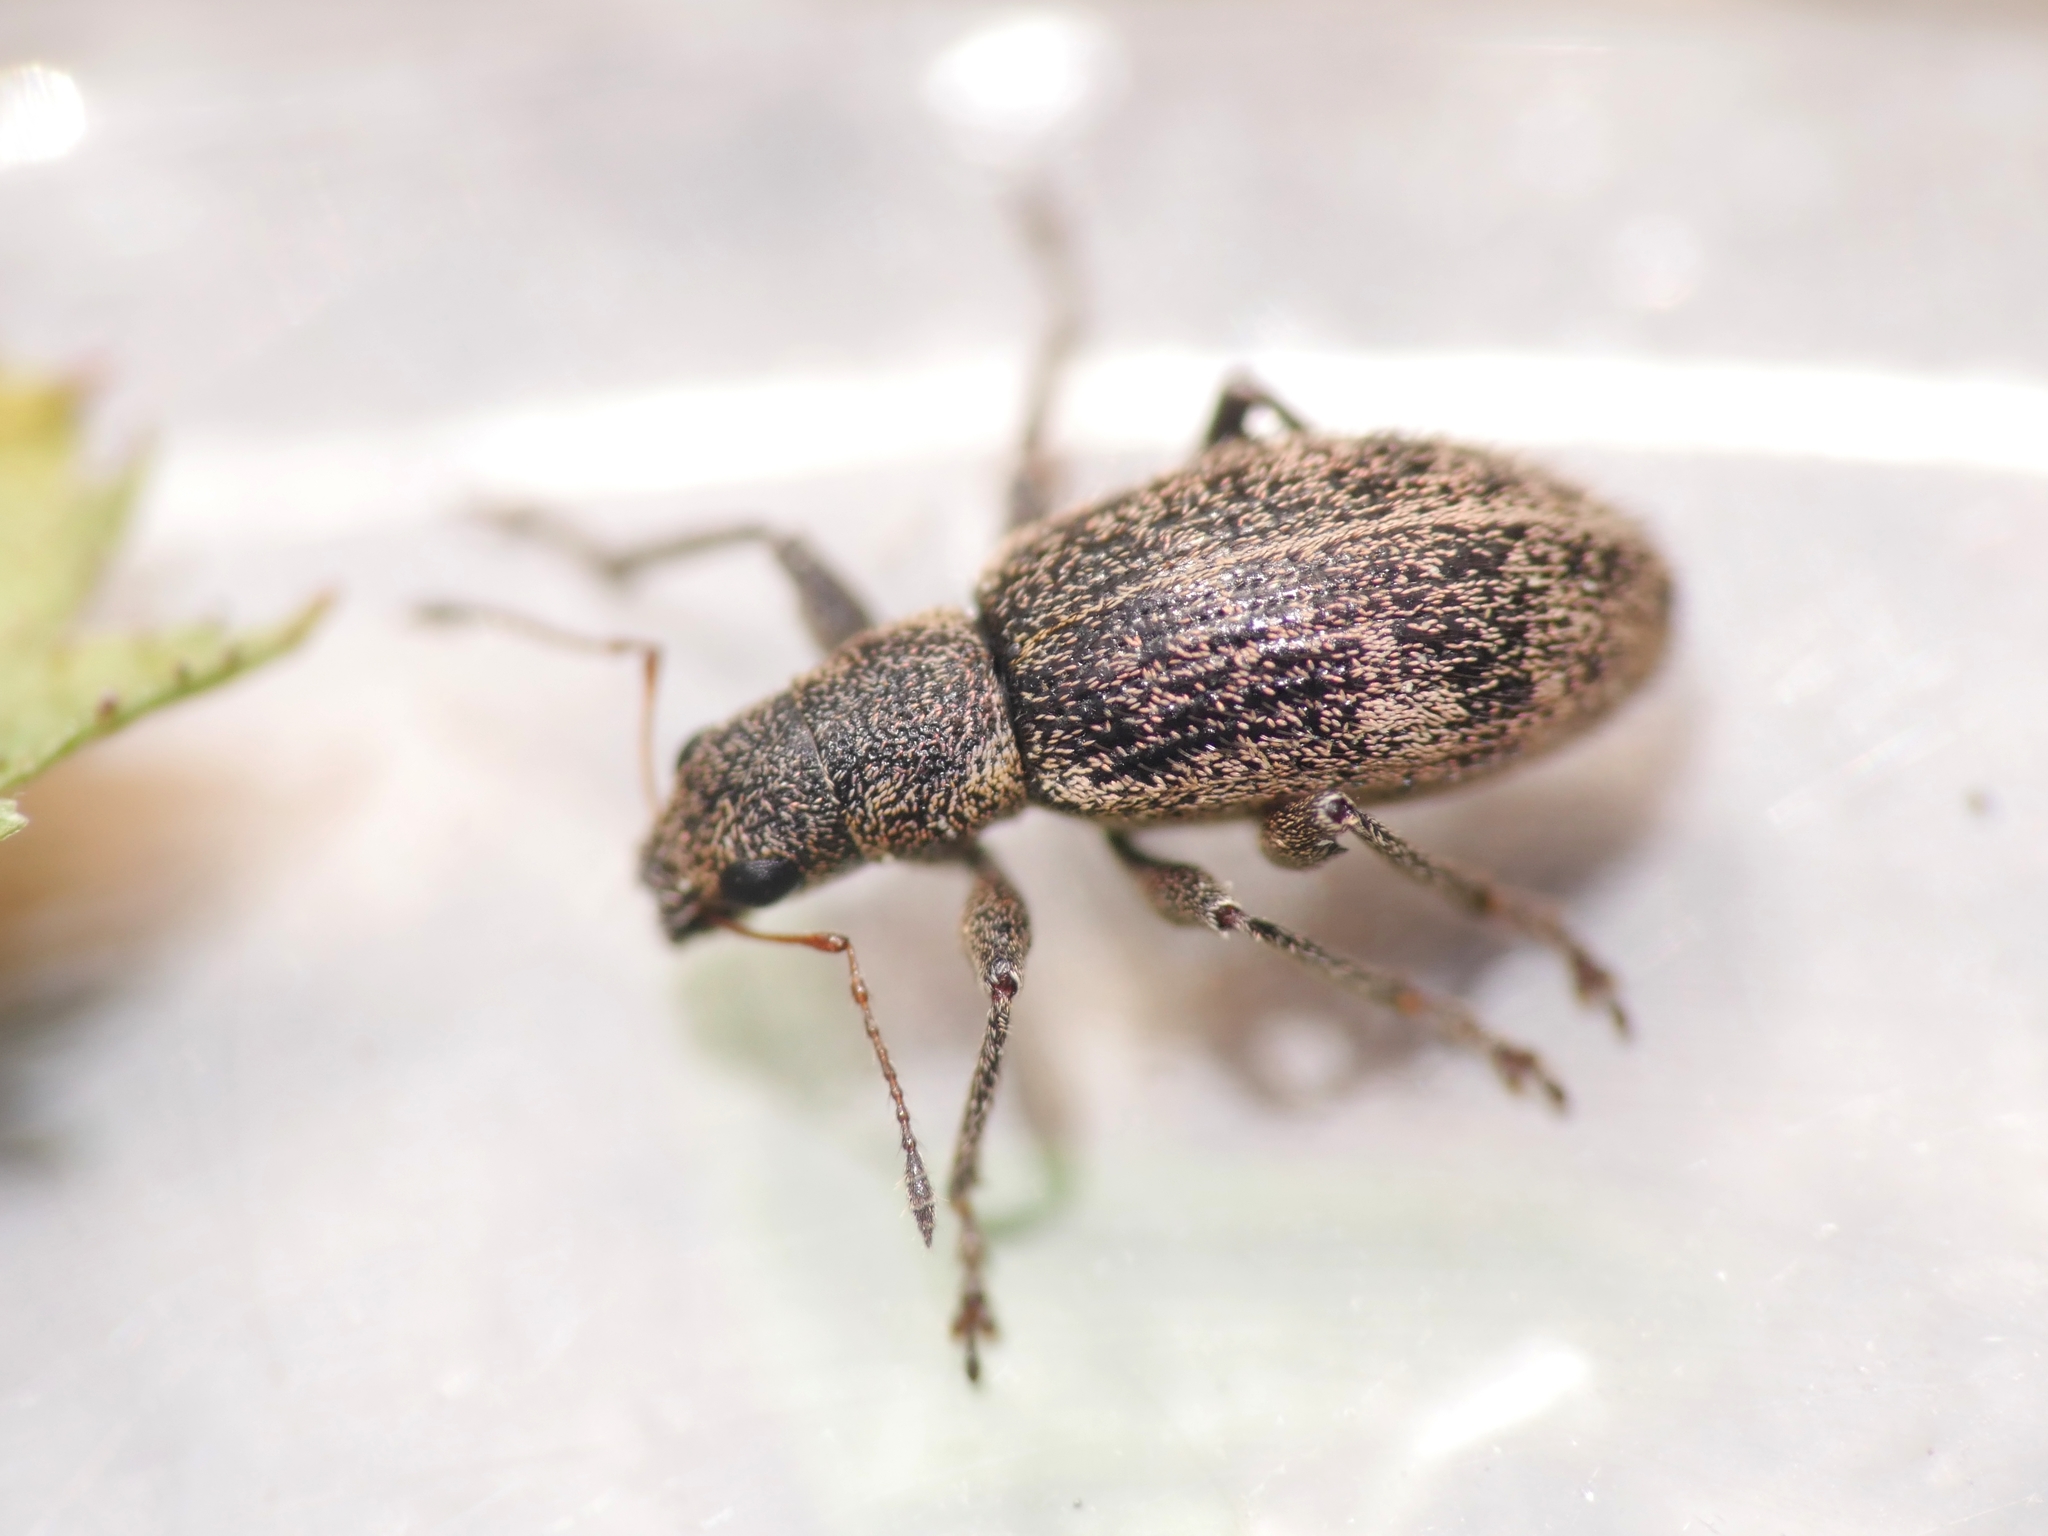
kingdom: Animalia
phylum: Arthropoda
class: Insecta
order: Coleoptera
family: Curculionidae
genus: Polydrusus
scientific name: Polydrusus inustus
